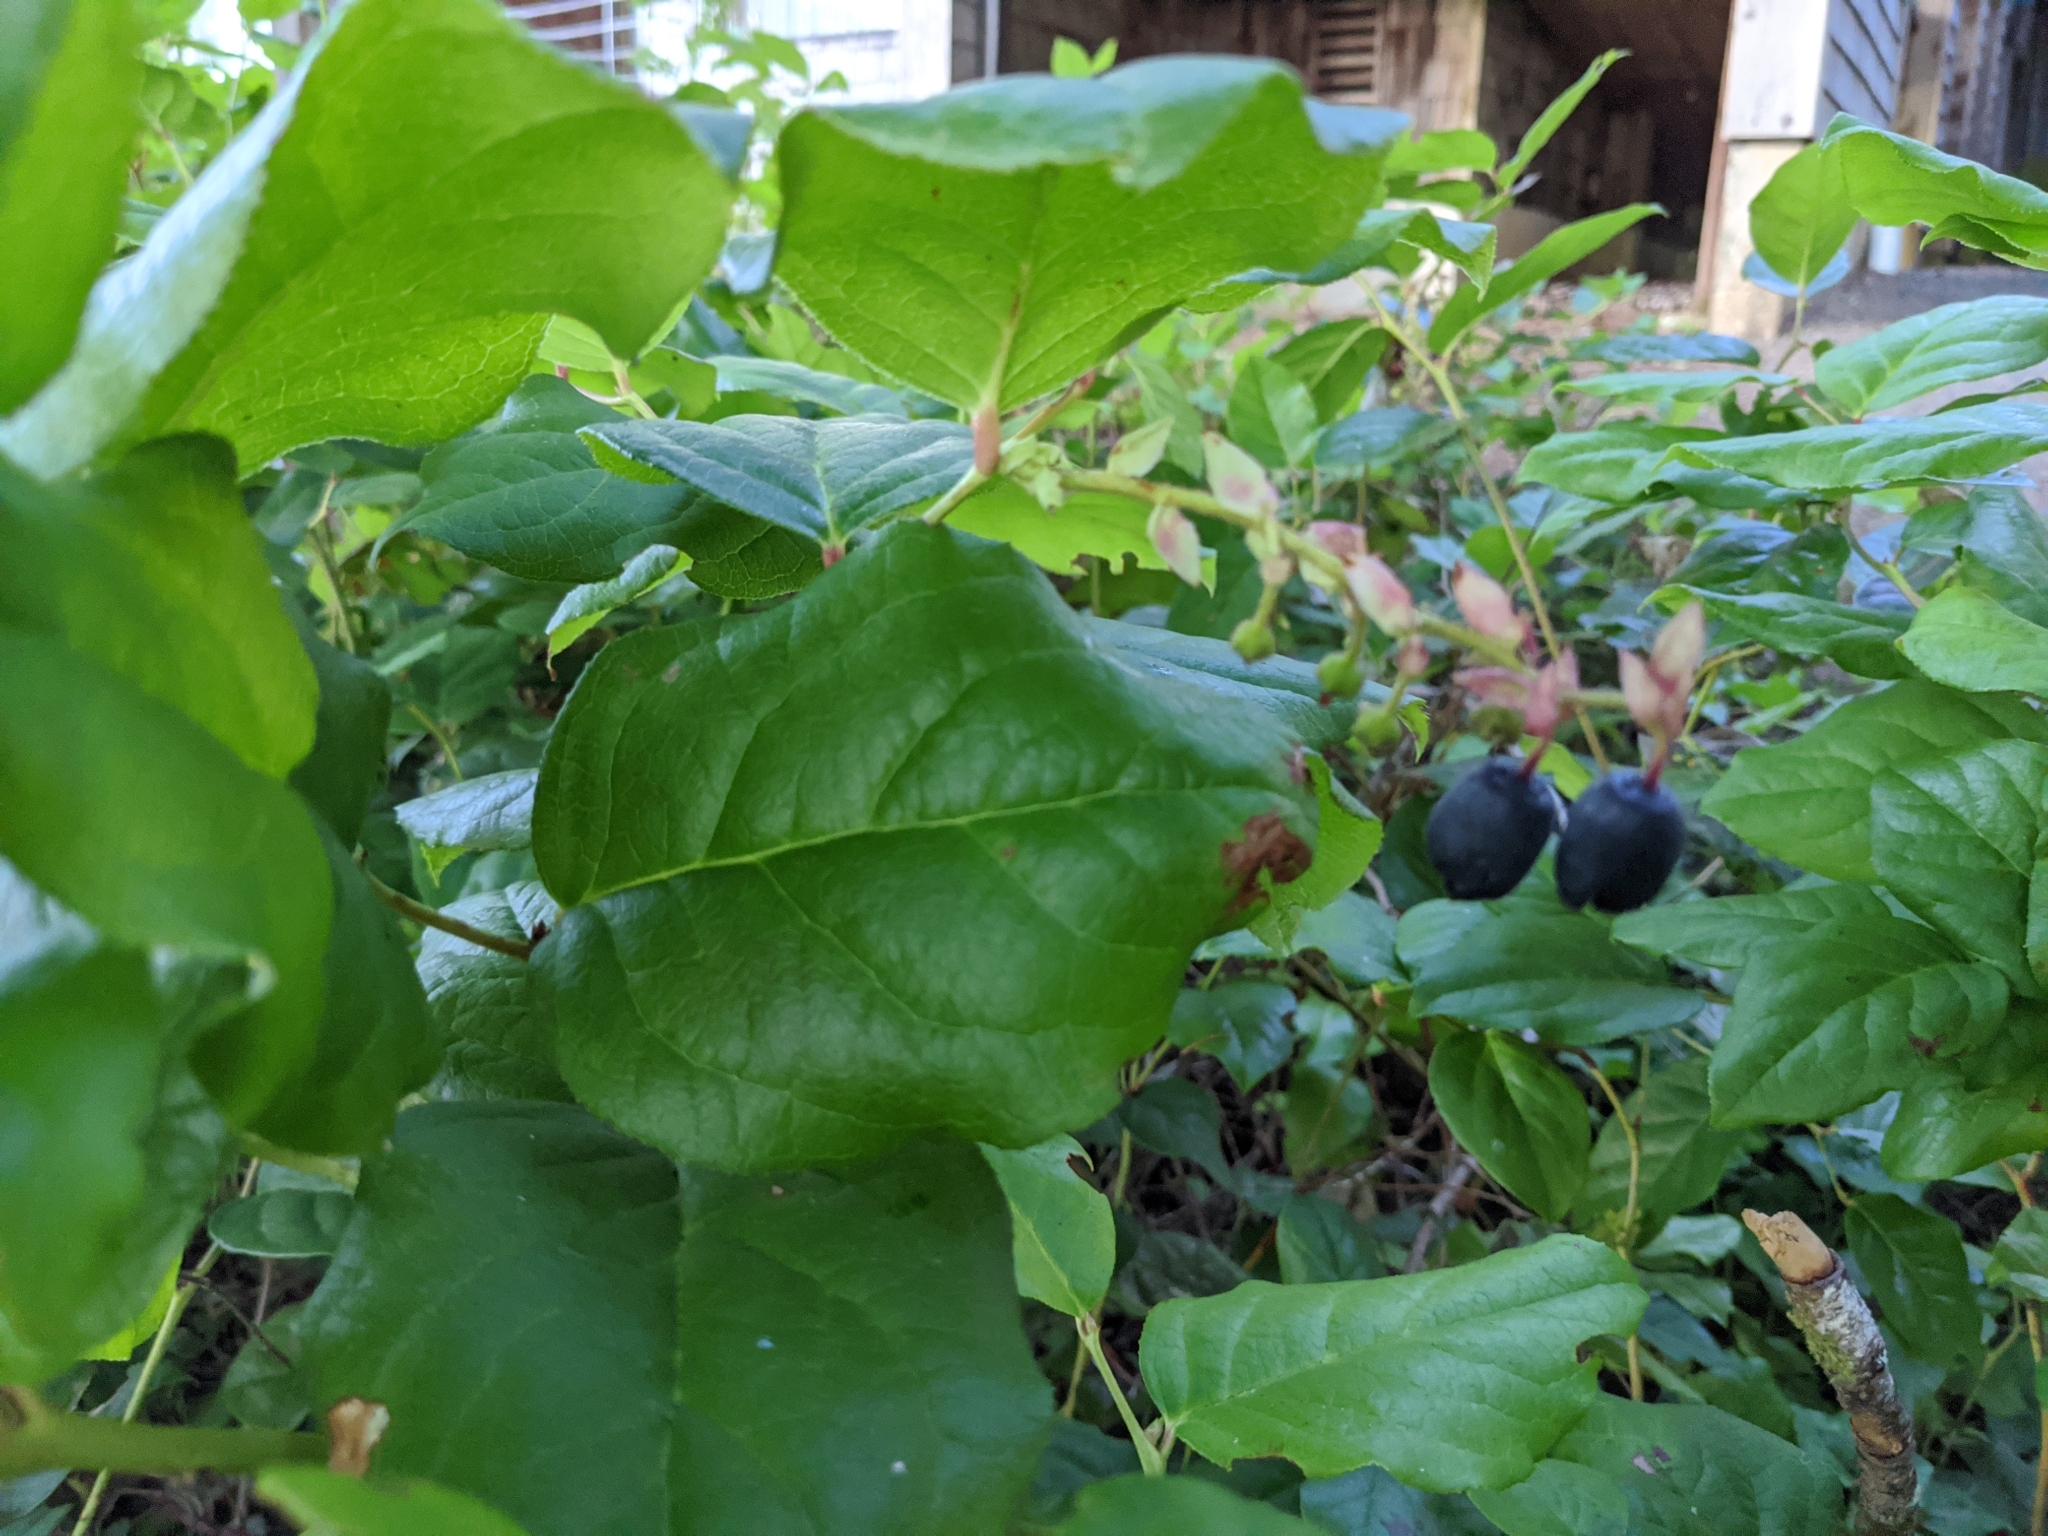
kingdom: Plantae
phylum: Tracheophyta
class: Magnoliopsida
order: Ericales
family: Ericaceae
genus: Gaultheria
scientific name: Gaultheria shallon
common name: Shallon
